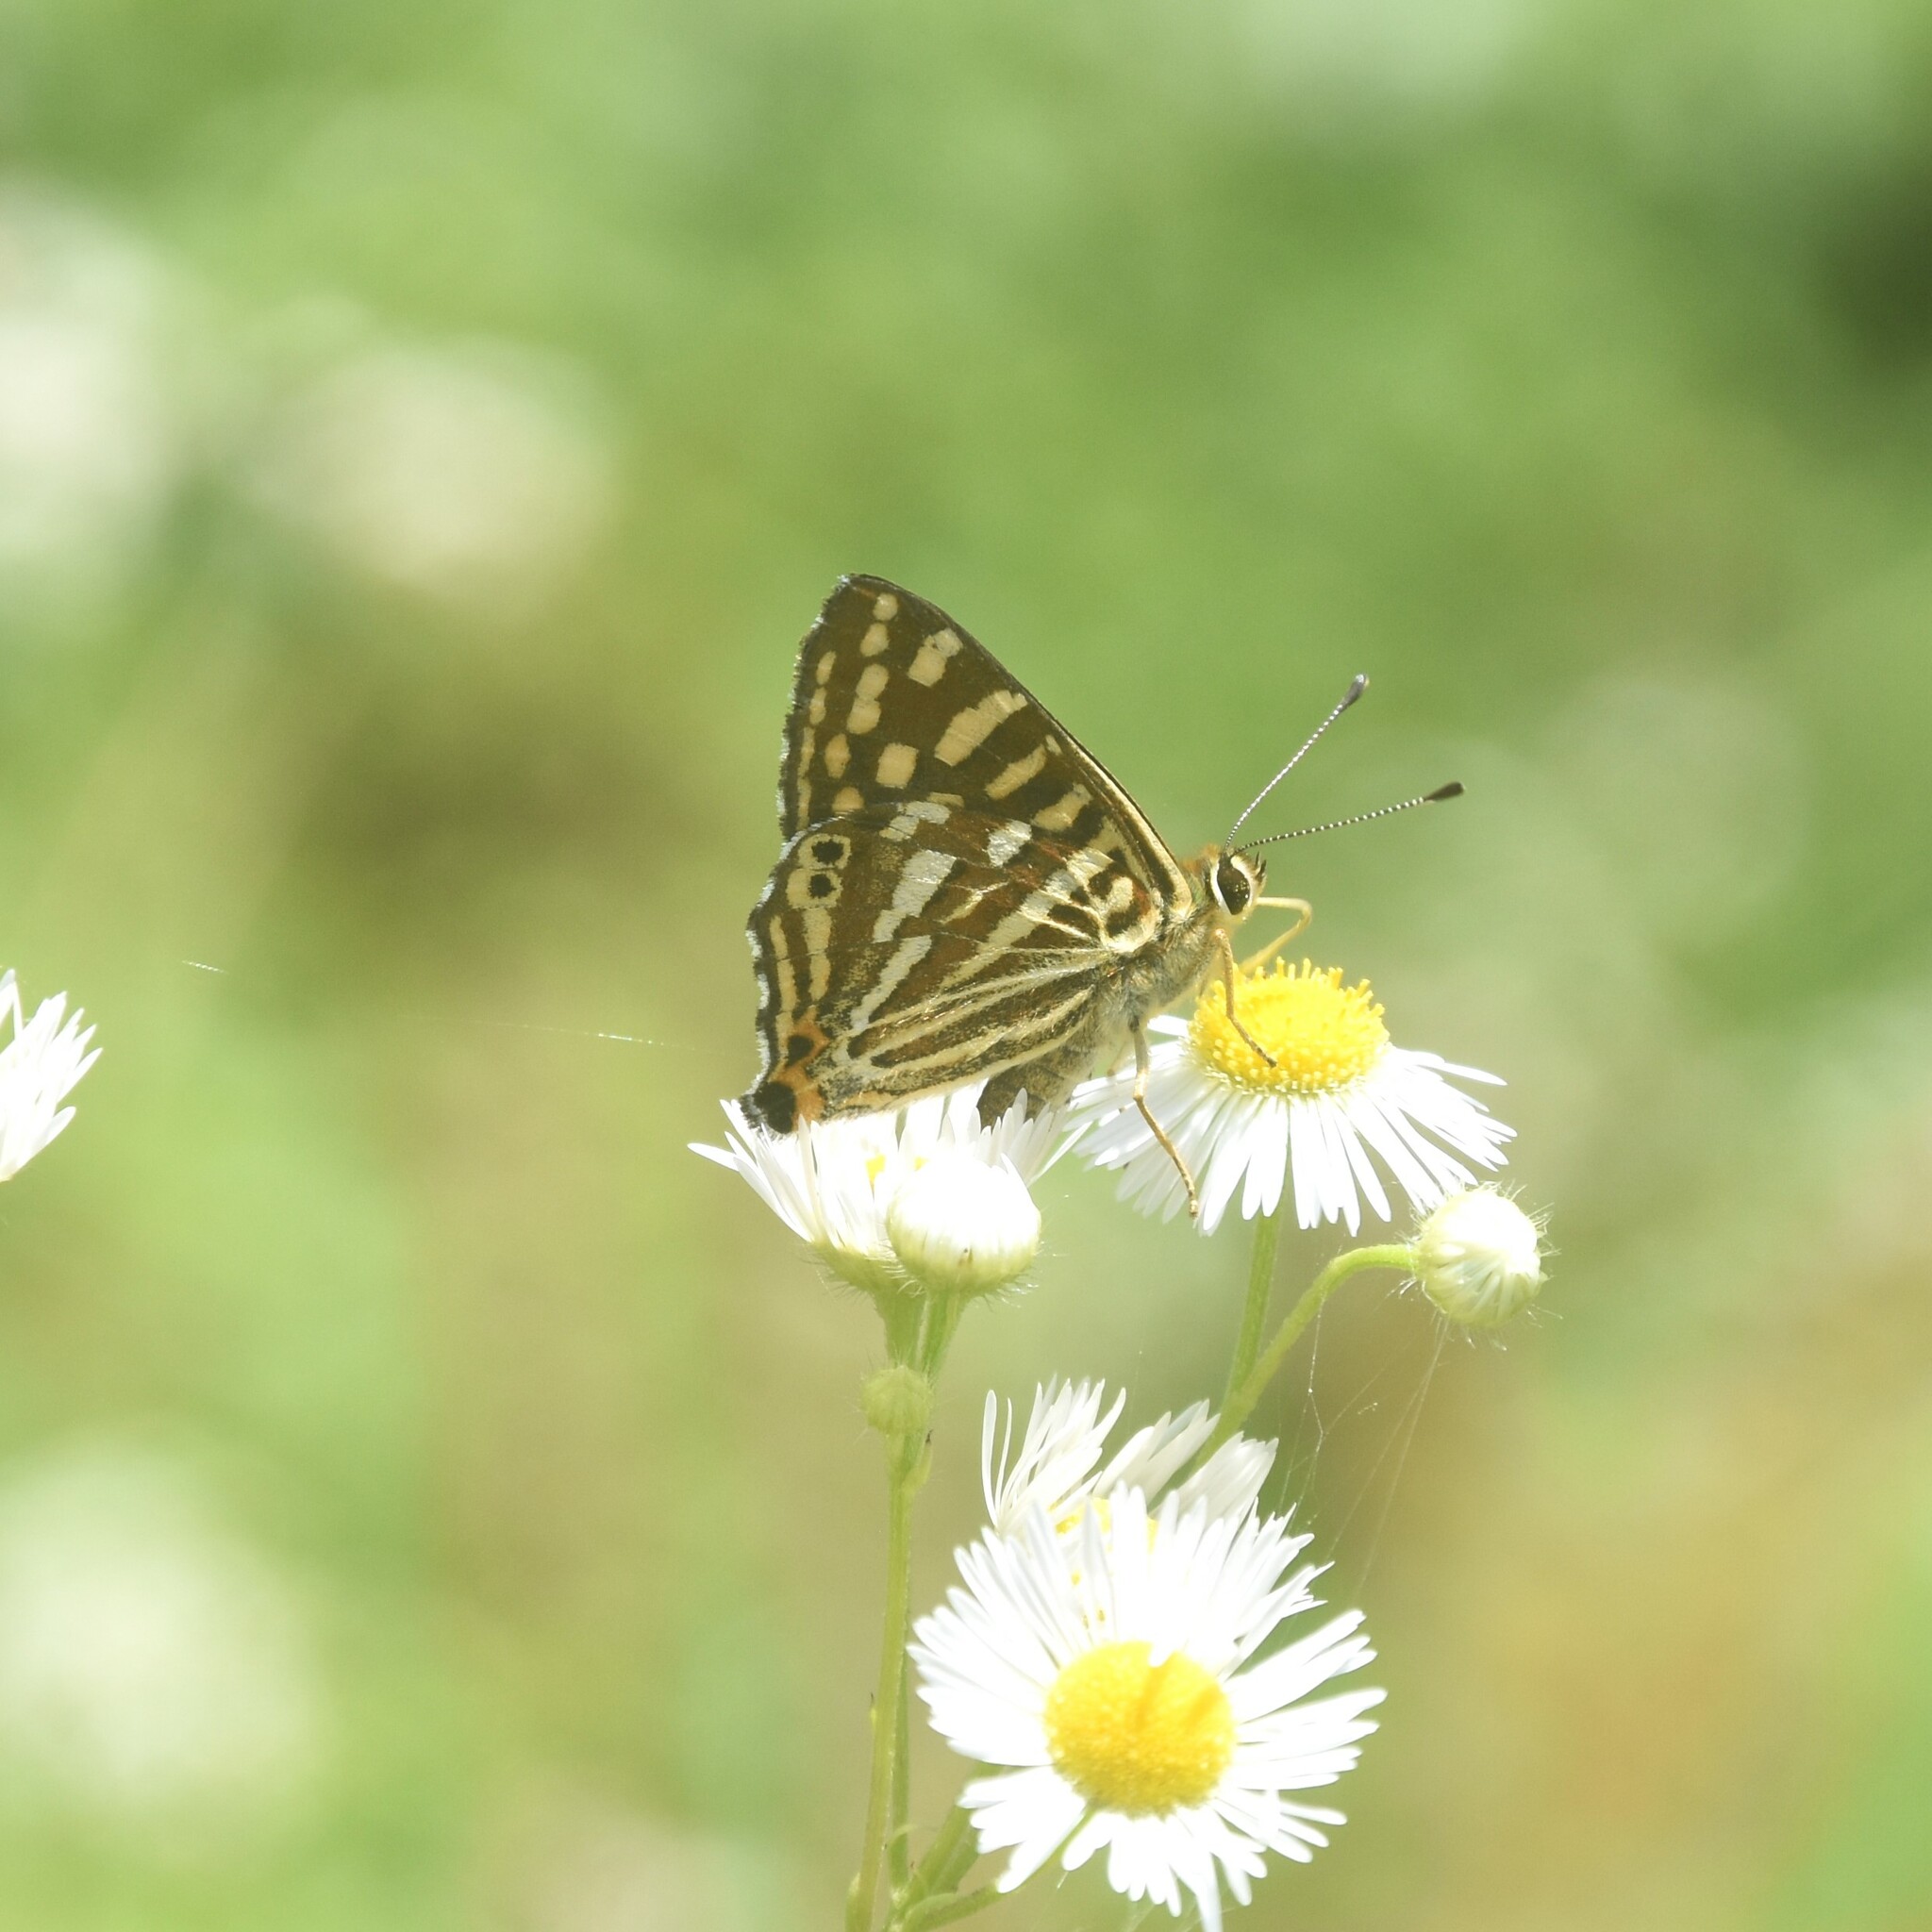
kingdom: Animalia
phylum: Arthropoda
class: Insecta
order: Lepidoptera
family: Lycaenidae
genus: Dodona
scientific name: Dodona durga
